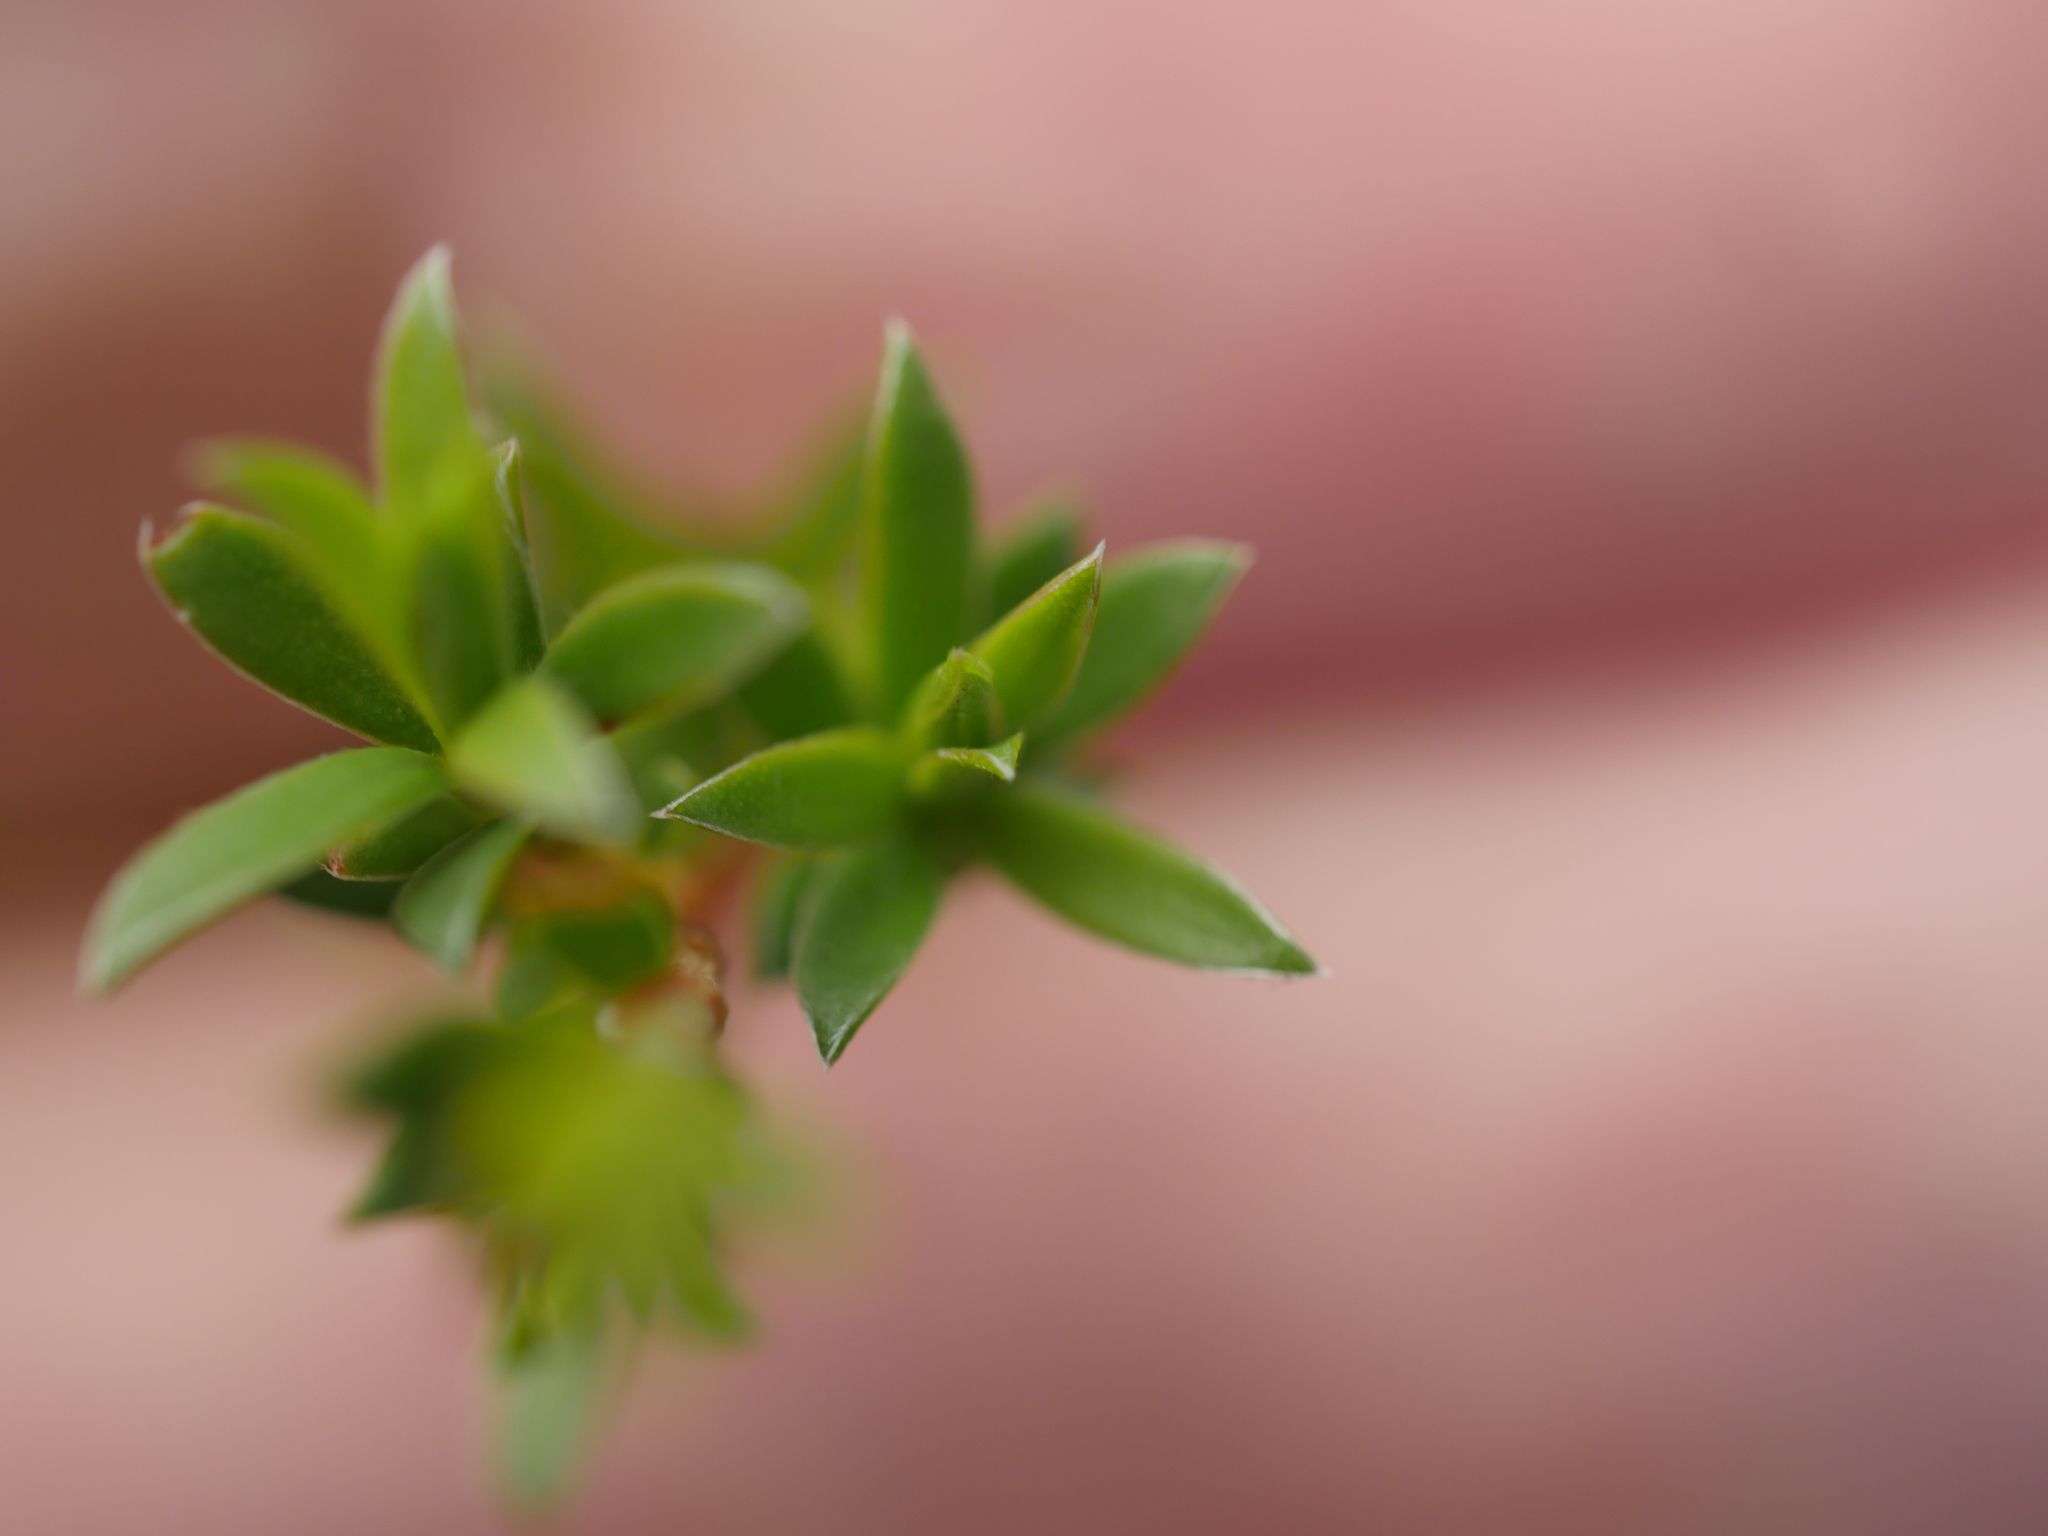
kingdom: Plantae
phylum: Tracheophyta
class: Magnoliopsida
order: Myrtales
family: Myrtaceae
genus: Kunzea
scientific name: Kunzea amathicola
